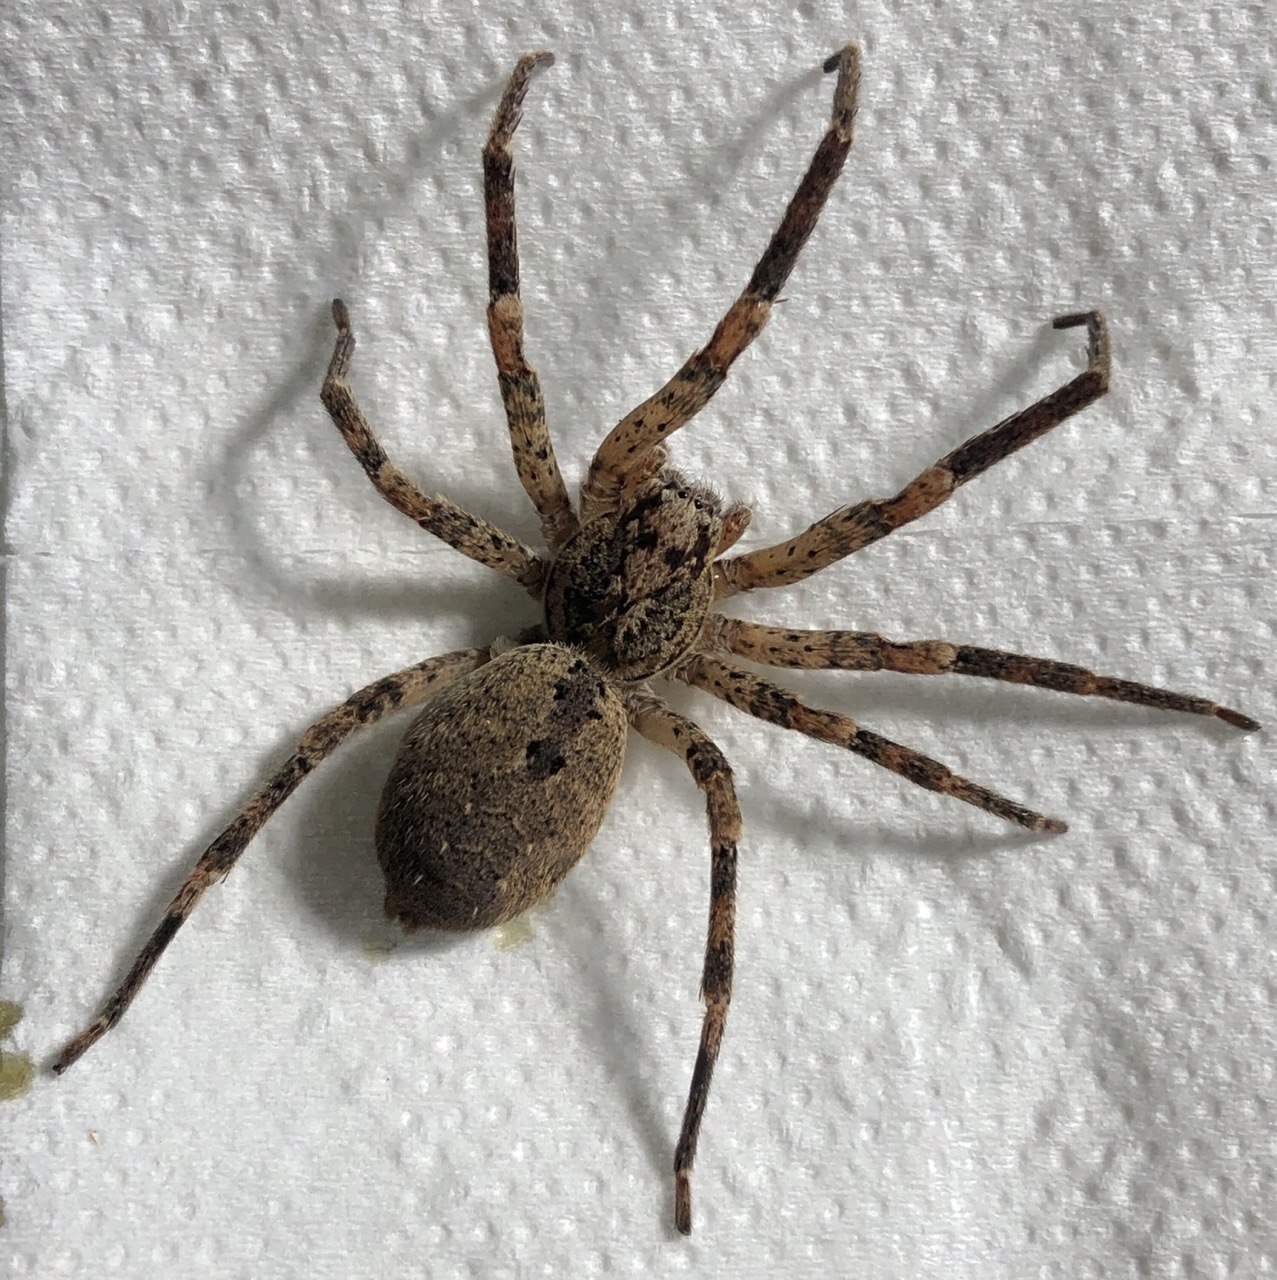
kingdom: Animalia
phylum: Arthropoda
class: Arachnida
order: Araneae
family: Zoropsidae
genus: Zoropsis
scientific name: Zoropsis spinimana
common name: Zoropsid spider
